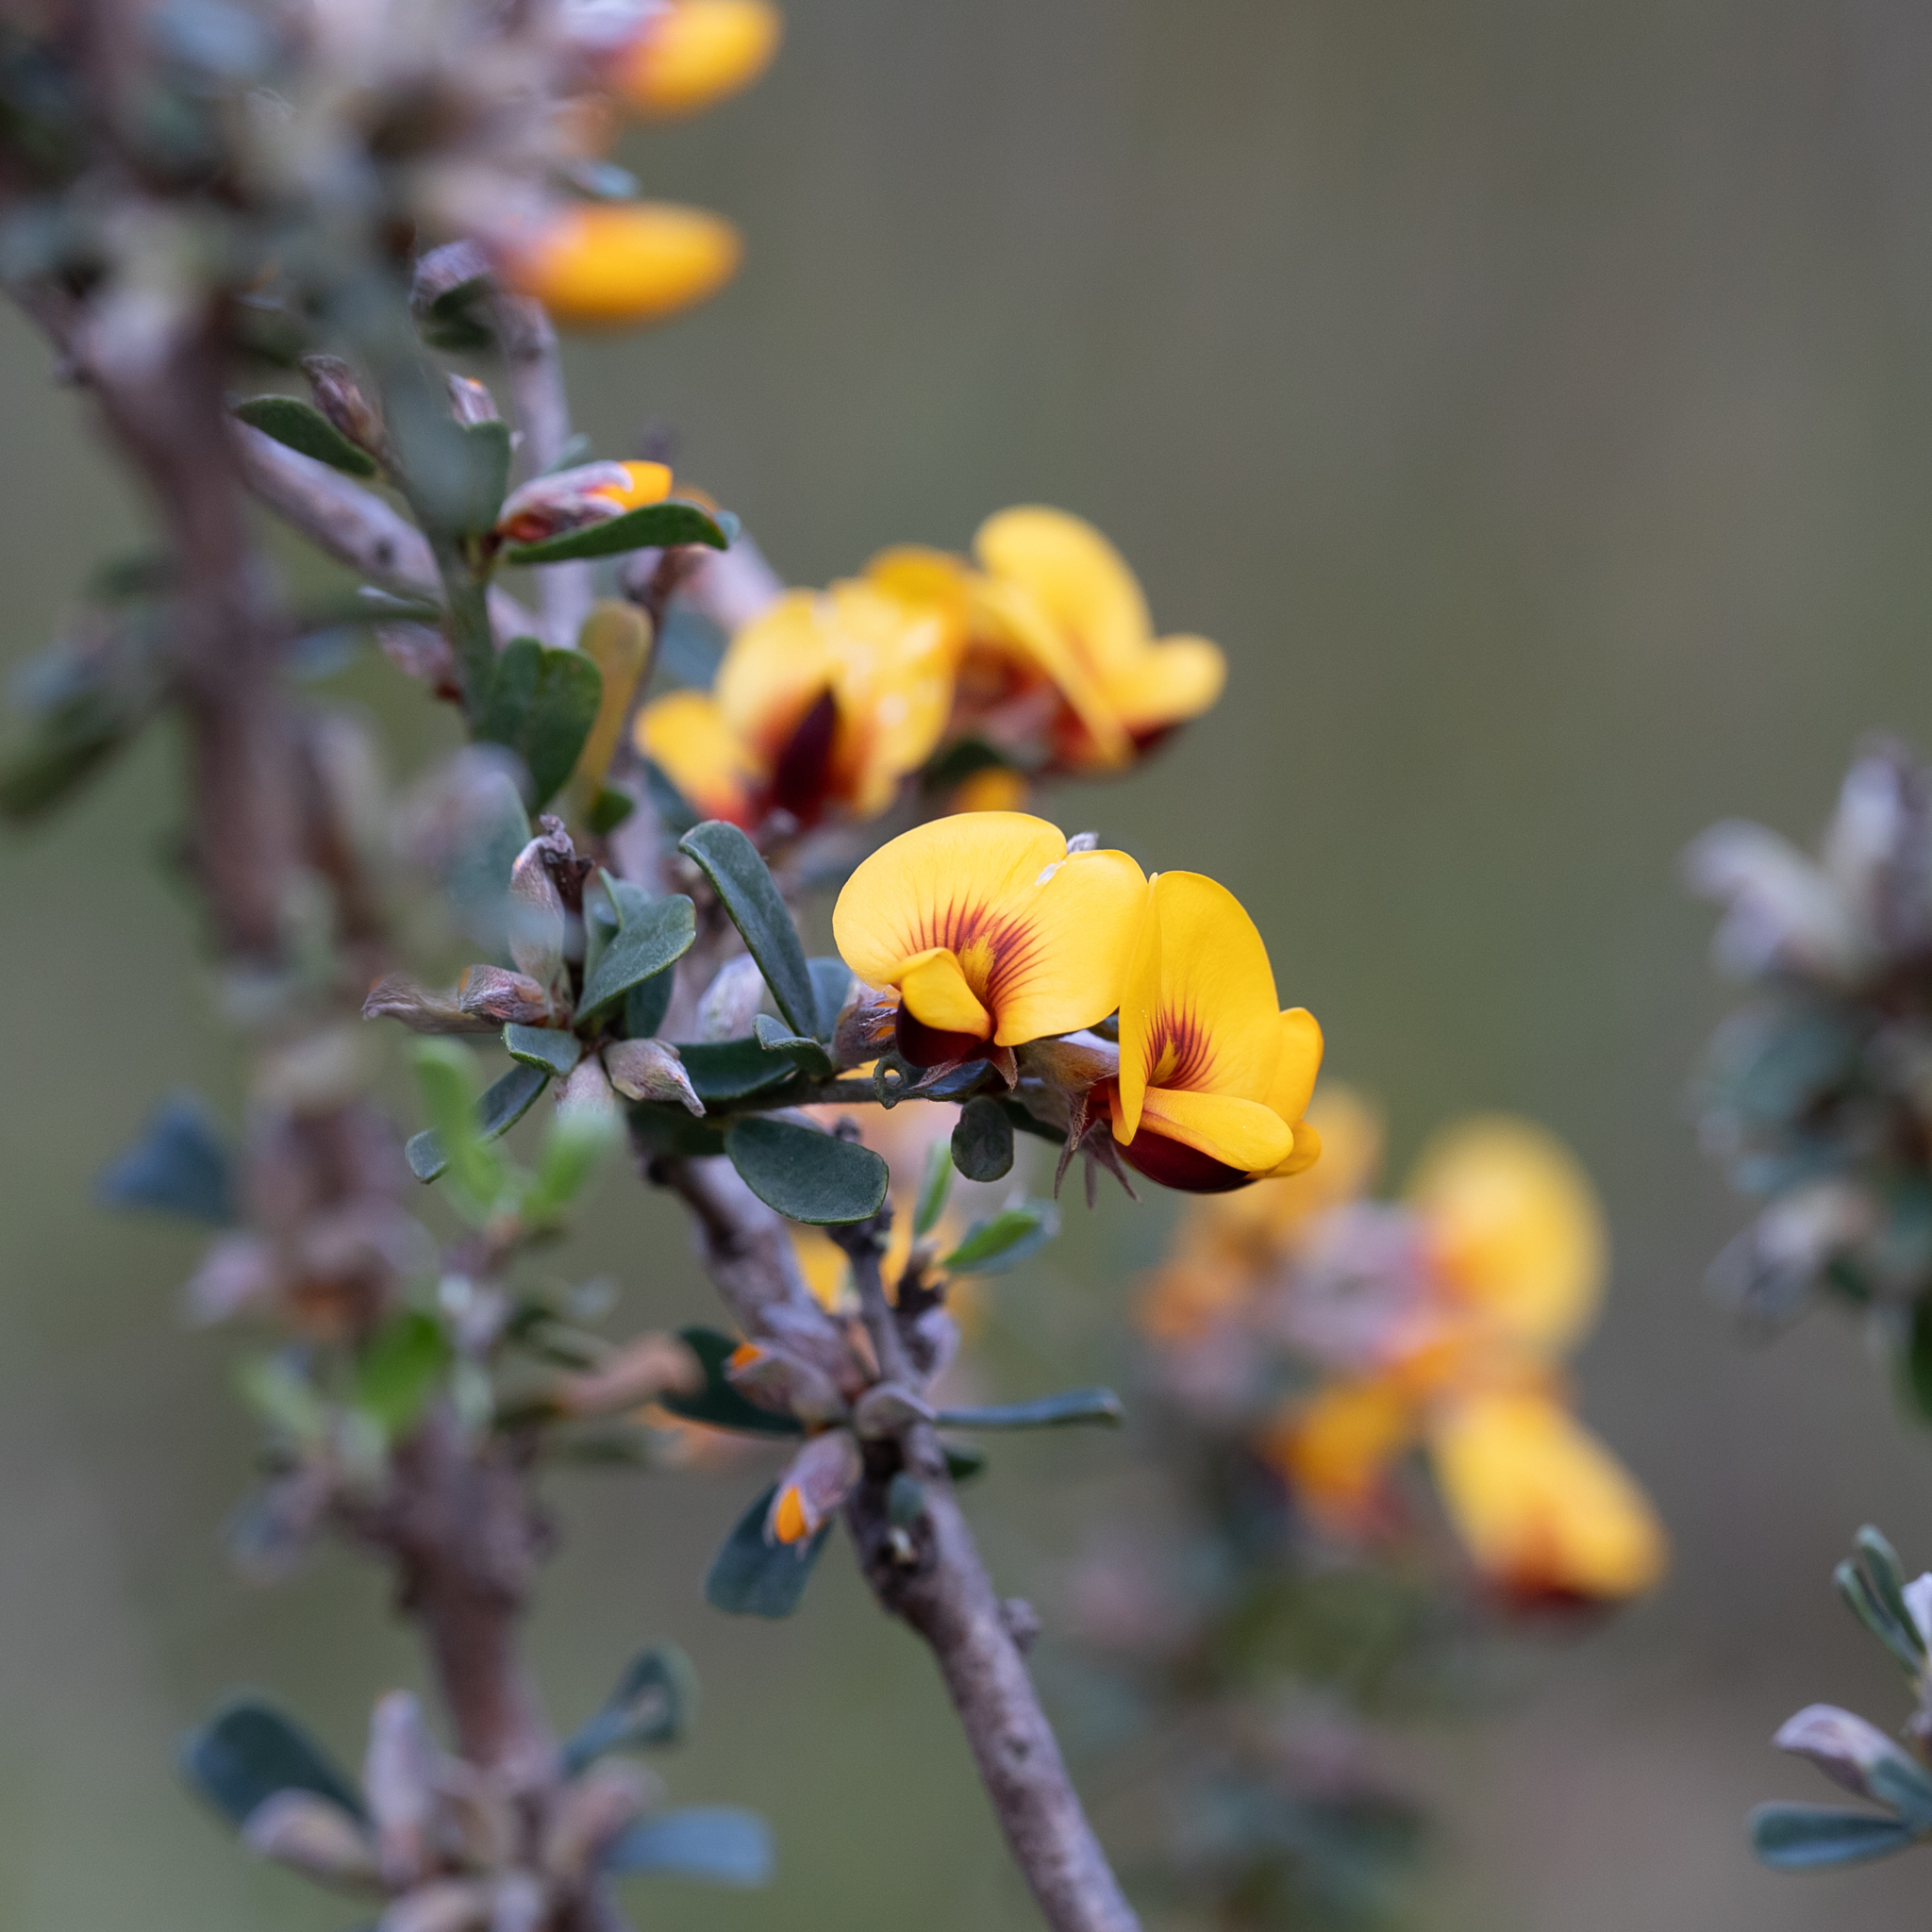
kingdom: Plantae
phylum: Tracheophyta
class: Magnoliopsida
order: Fabales
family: Fabaceae
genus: Pultenaea
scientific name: Pultenaea largiflorens
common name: Twiggy bush-pea
